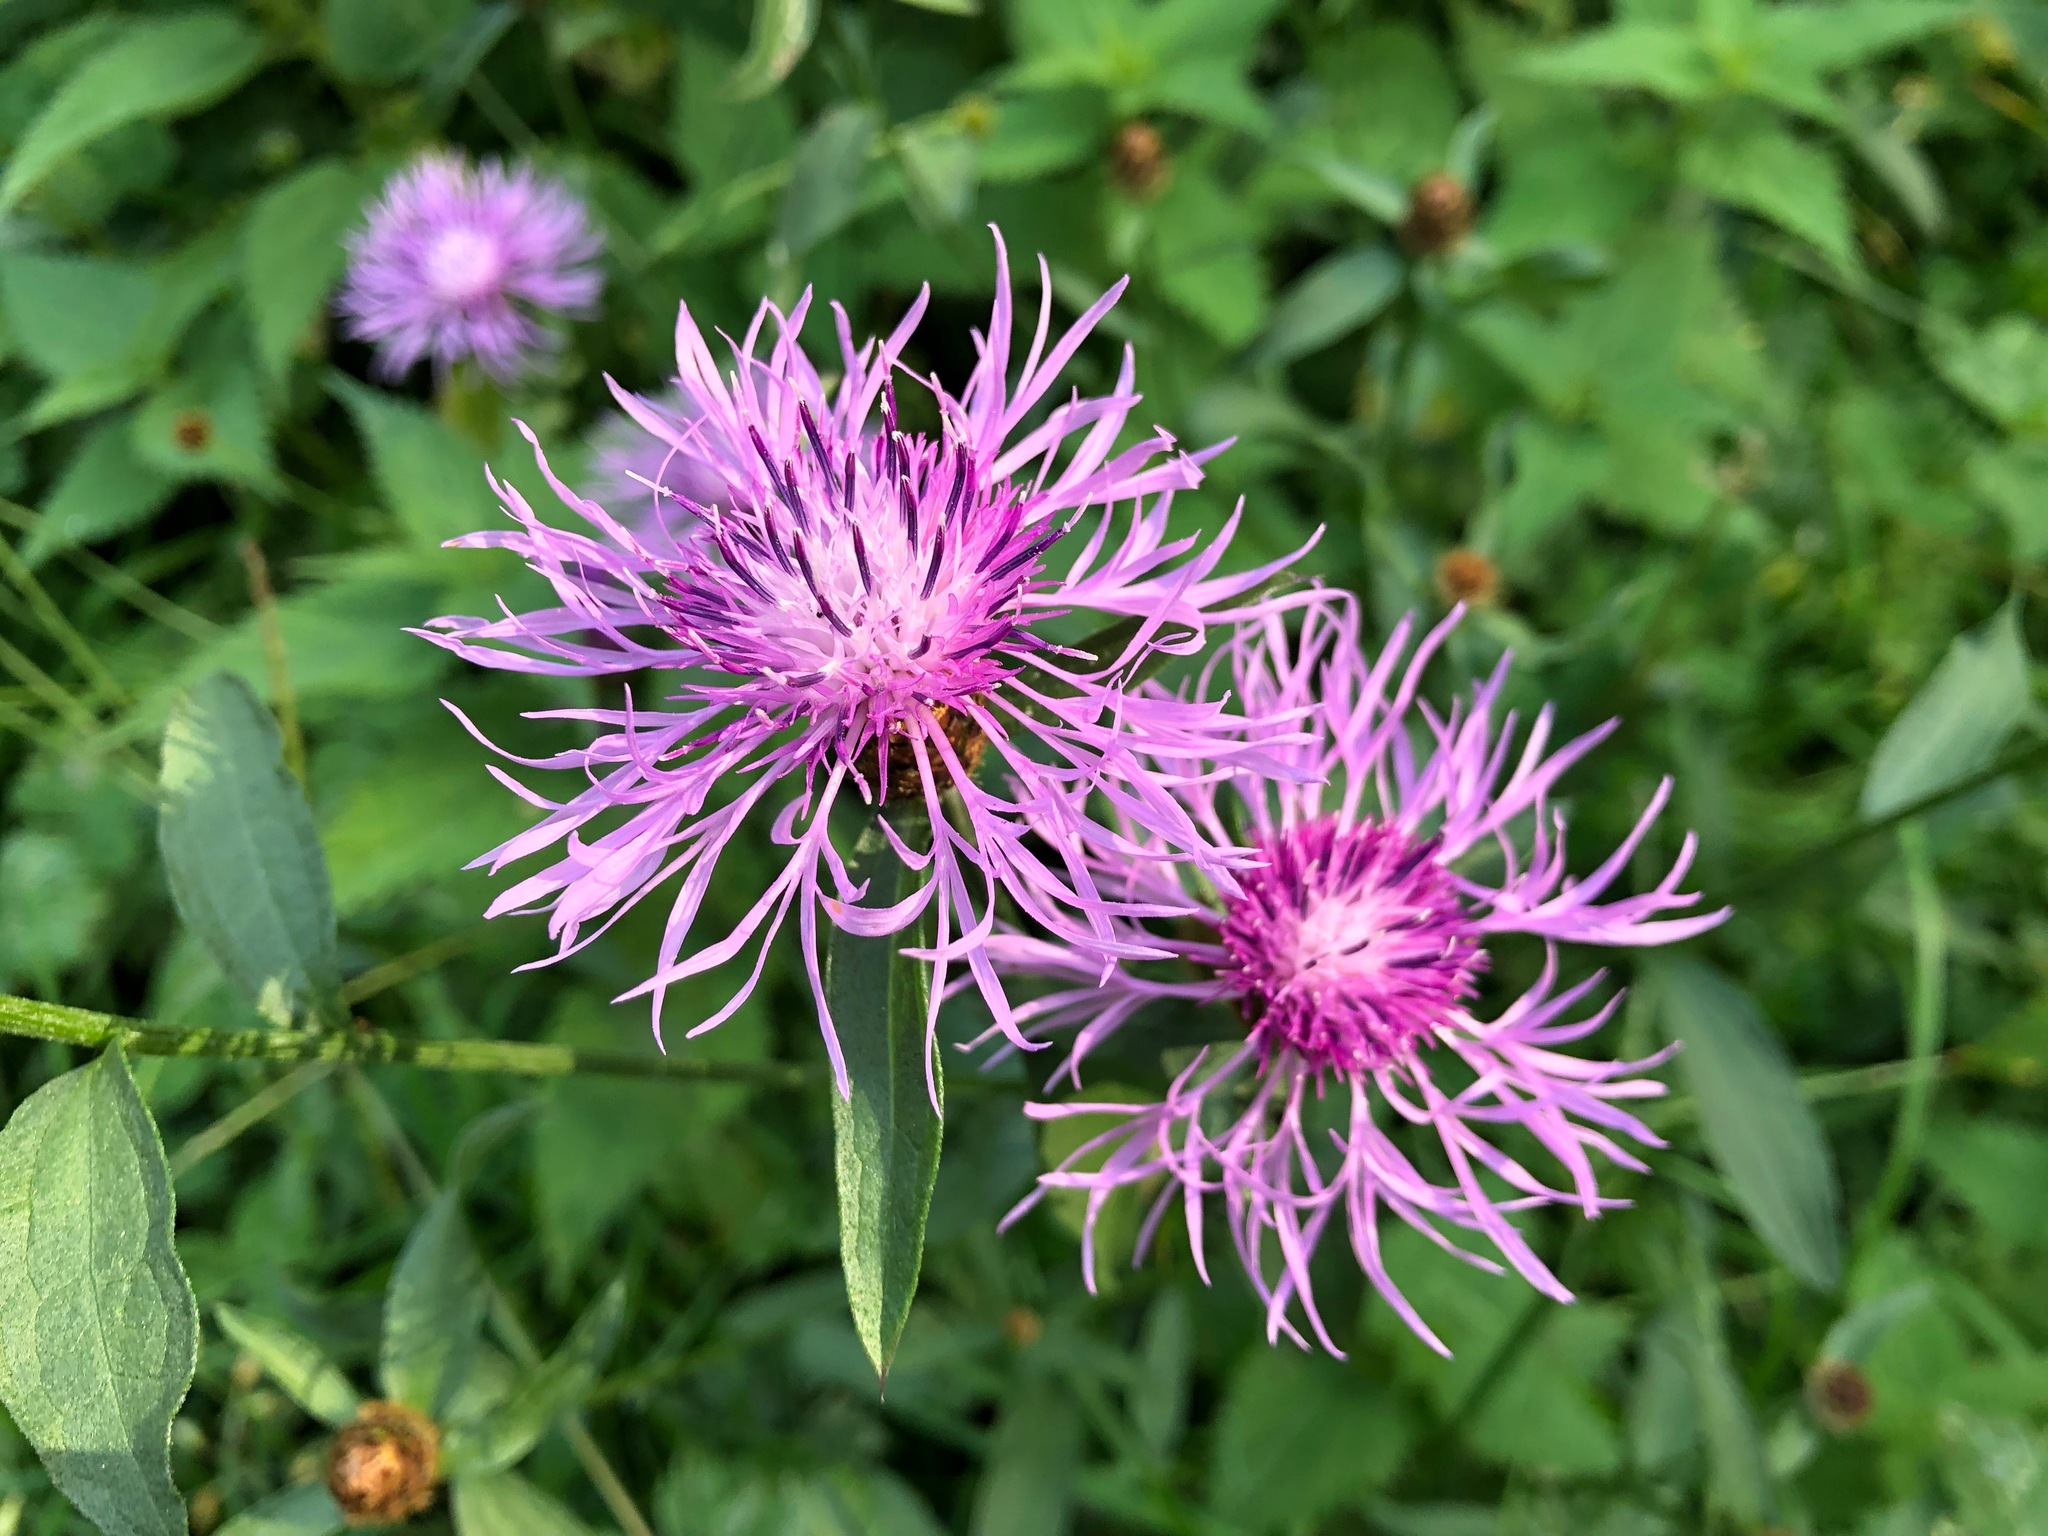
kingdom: Plantae
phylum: Tracheophyta
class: Magnoliopsida
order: Asterales
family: Asteraceae
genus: Centaurea
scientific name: Centaurea jacea
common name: Brown knapweed
